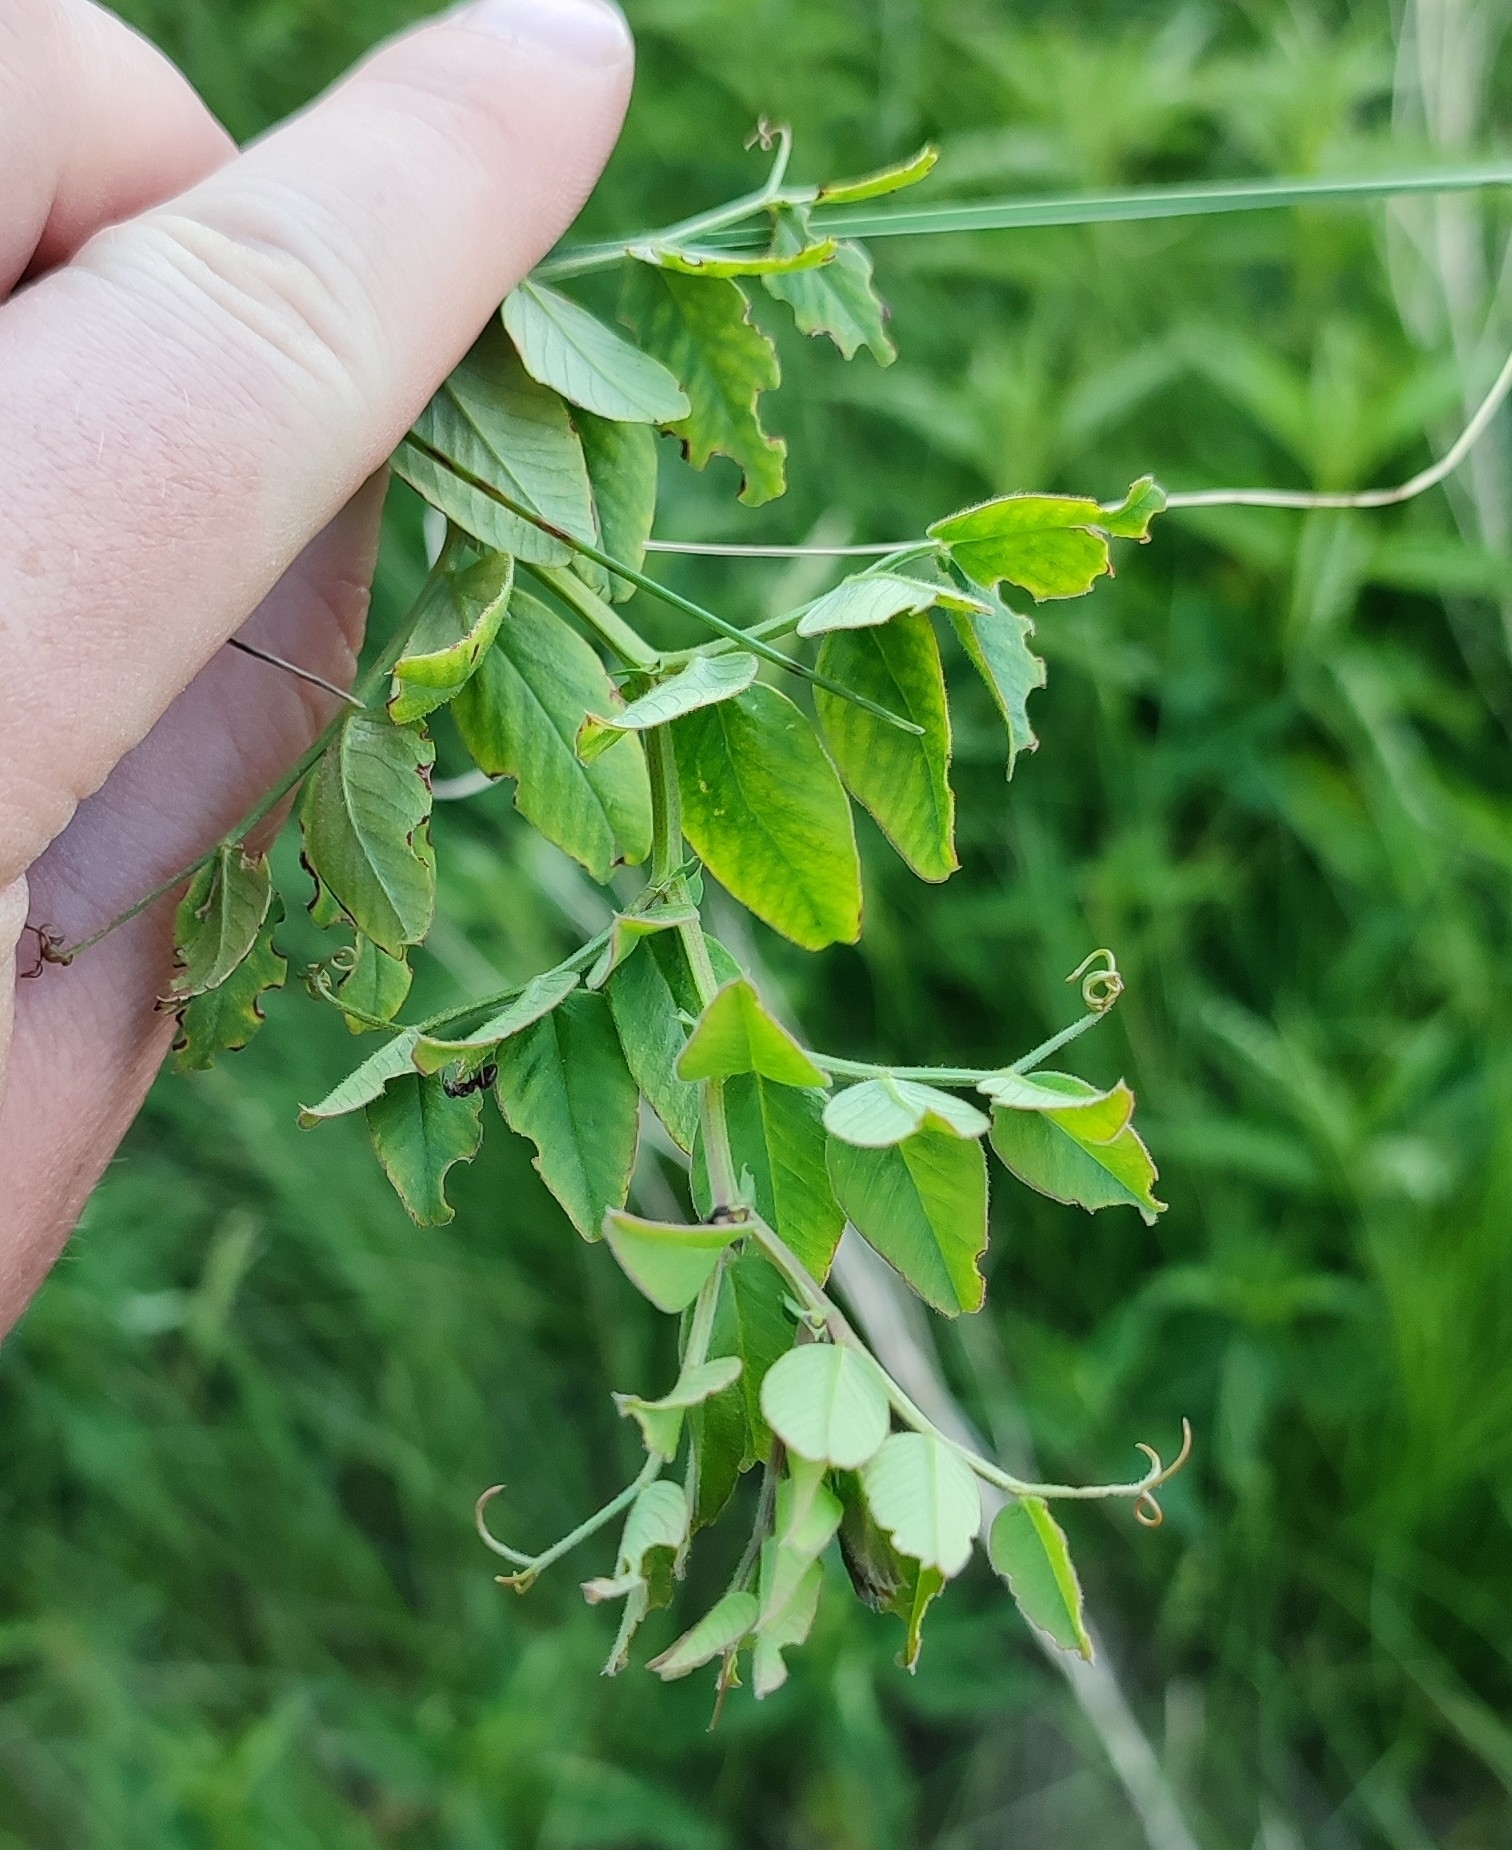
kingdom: Plantae
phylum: Tracheophyta
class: Magnoliopsida
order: Fabales
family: Fabaceae
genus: Vicia
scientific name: Vicia sepium
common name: Bush vetch
